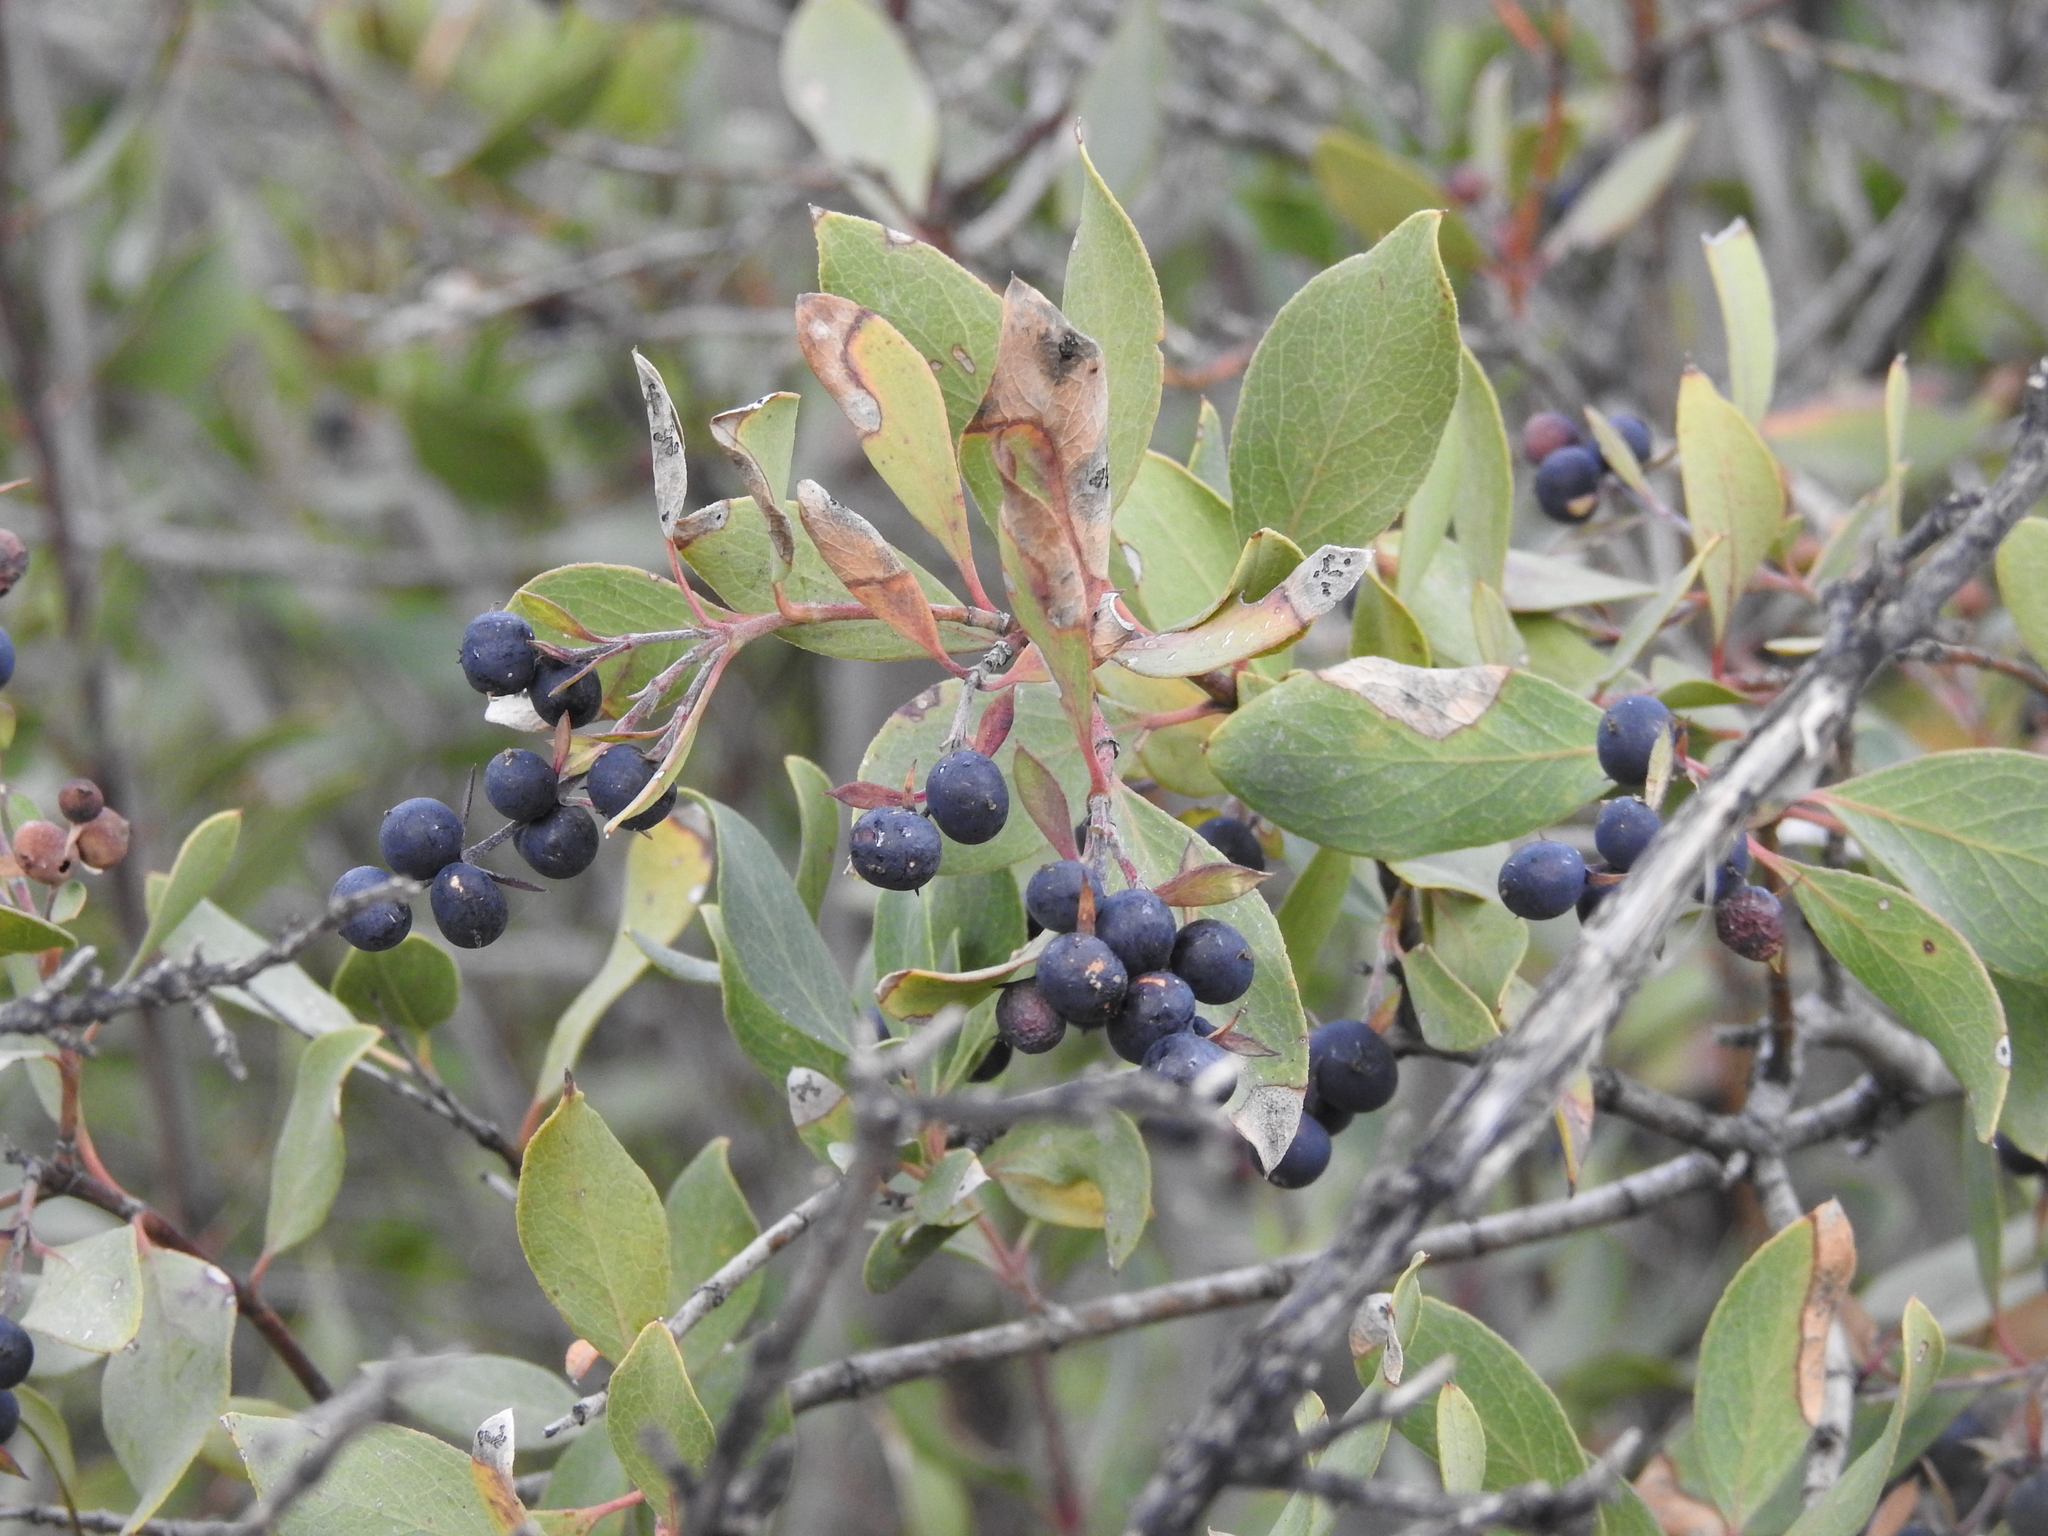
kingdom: Plantae
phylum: Tracheophyta
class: Magnoliopsida
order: Garryales
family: Garryaceae
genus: Garrya
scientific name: Garrya wrightii
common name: Wright's silktassel
